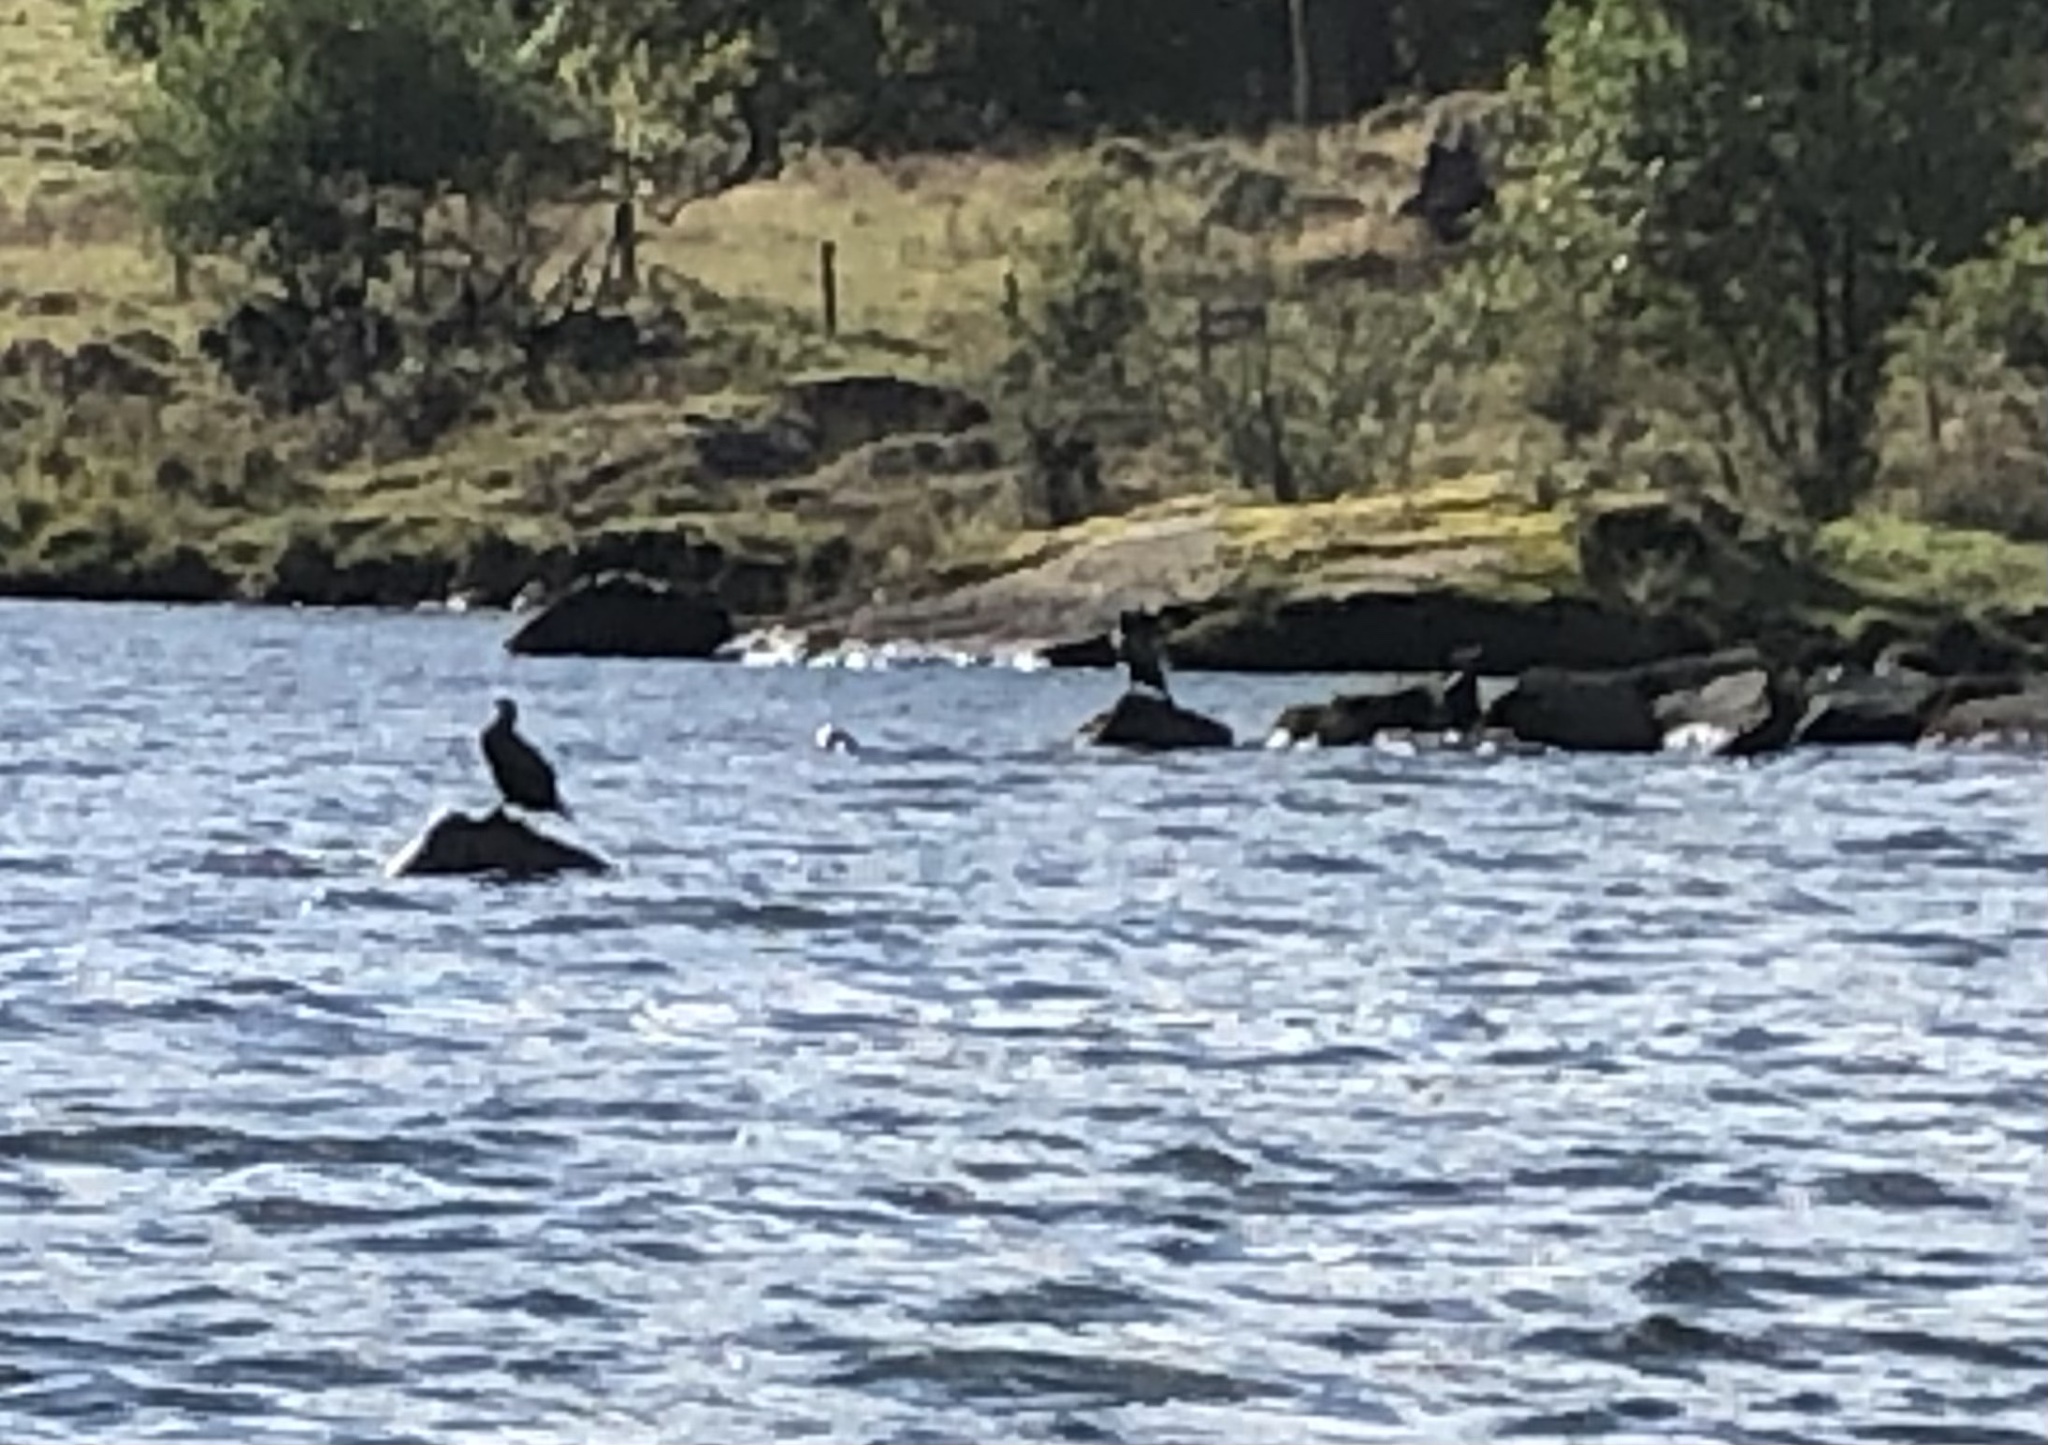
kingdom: Animalia
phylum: Chordata
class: Aves
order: Suliformes
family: Phalacrocoracidae
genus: Phalacrocorax
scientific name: Phalacrocorax carbo
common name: Great cormorant
